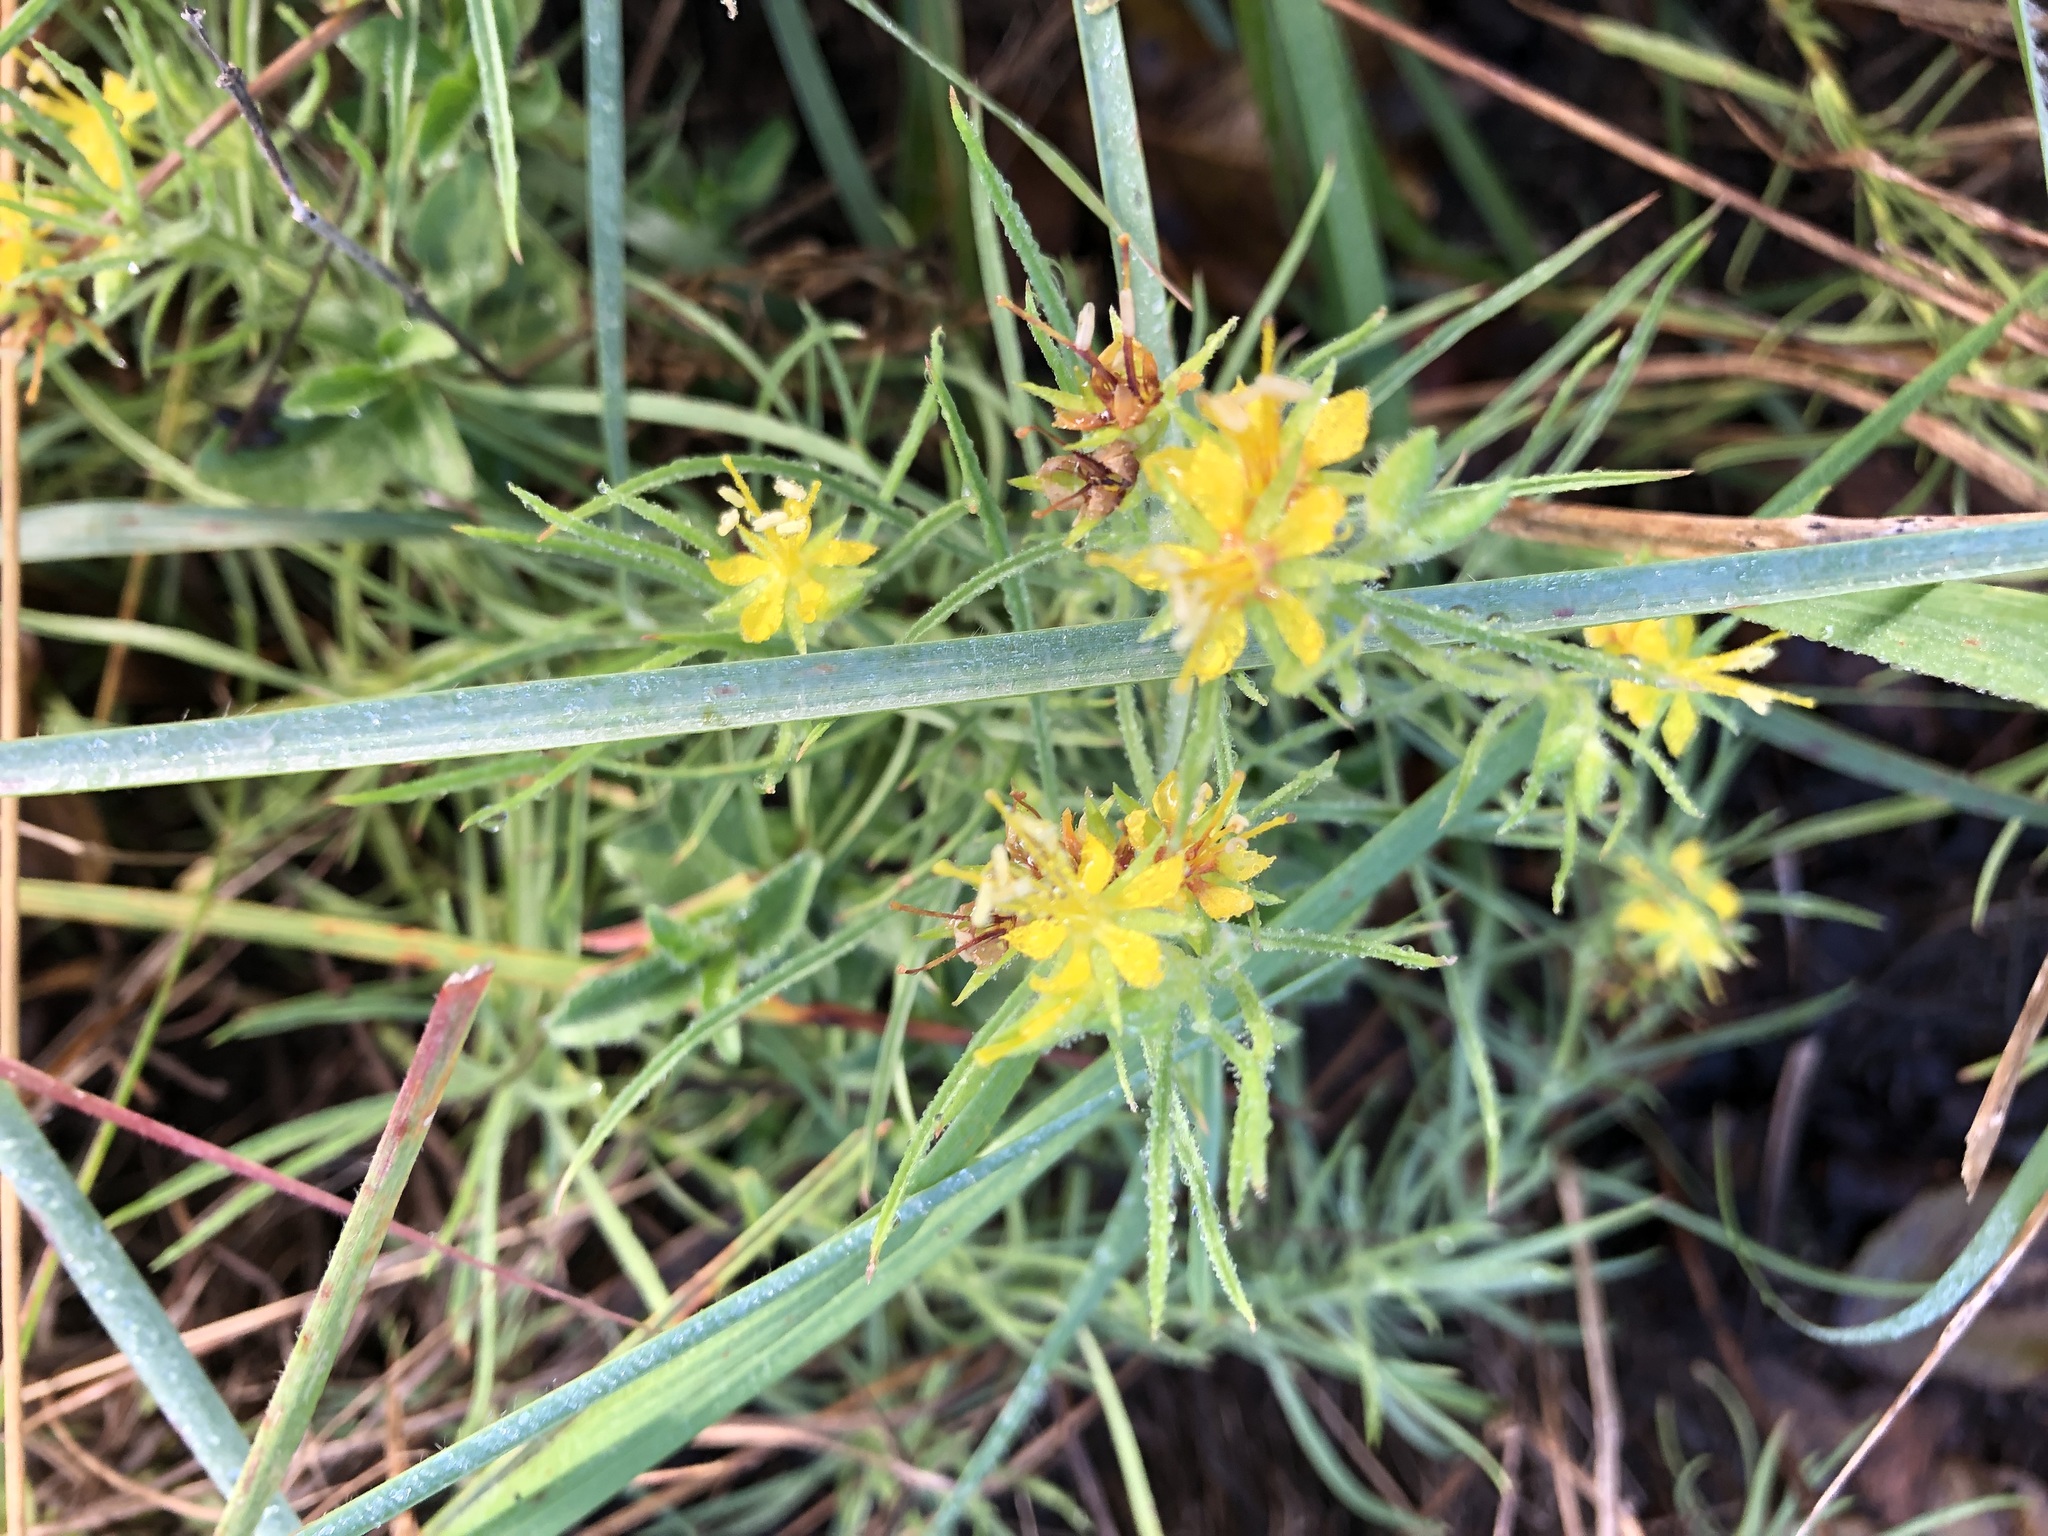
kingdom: Plantae
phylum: Tracheophyta
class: Magnoliopsida
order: Vahliales
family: Vahliaceae
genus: Vahlia
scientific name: Vahlia capensis
